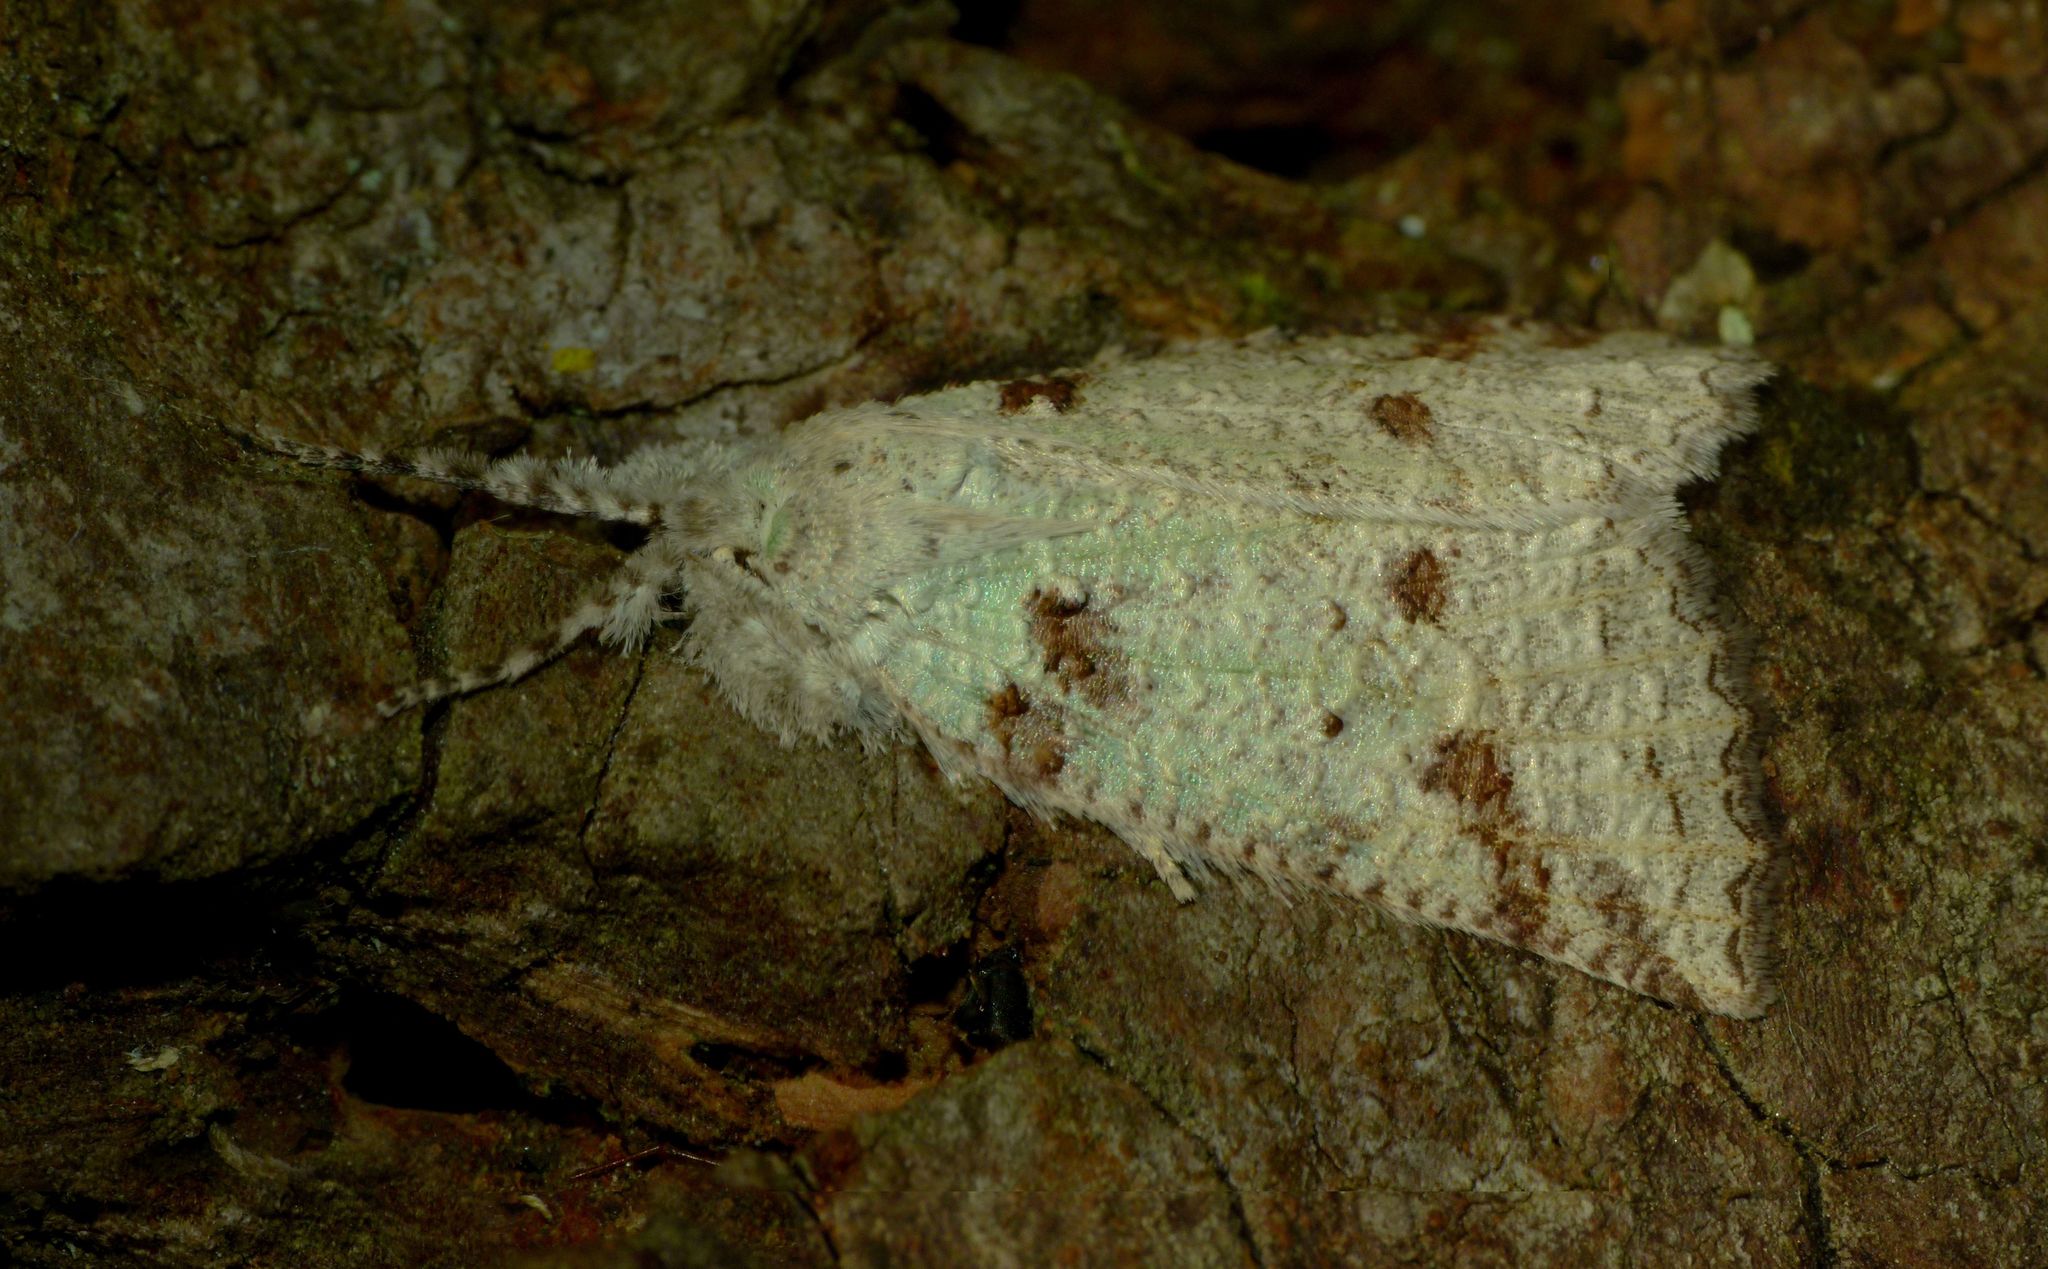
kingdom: Animalia
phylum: Arthropoda
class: Insecta
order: Lepidoptera
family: Geometridae
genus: Declana
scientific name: Declana floccosa
